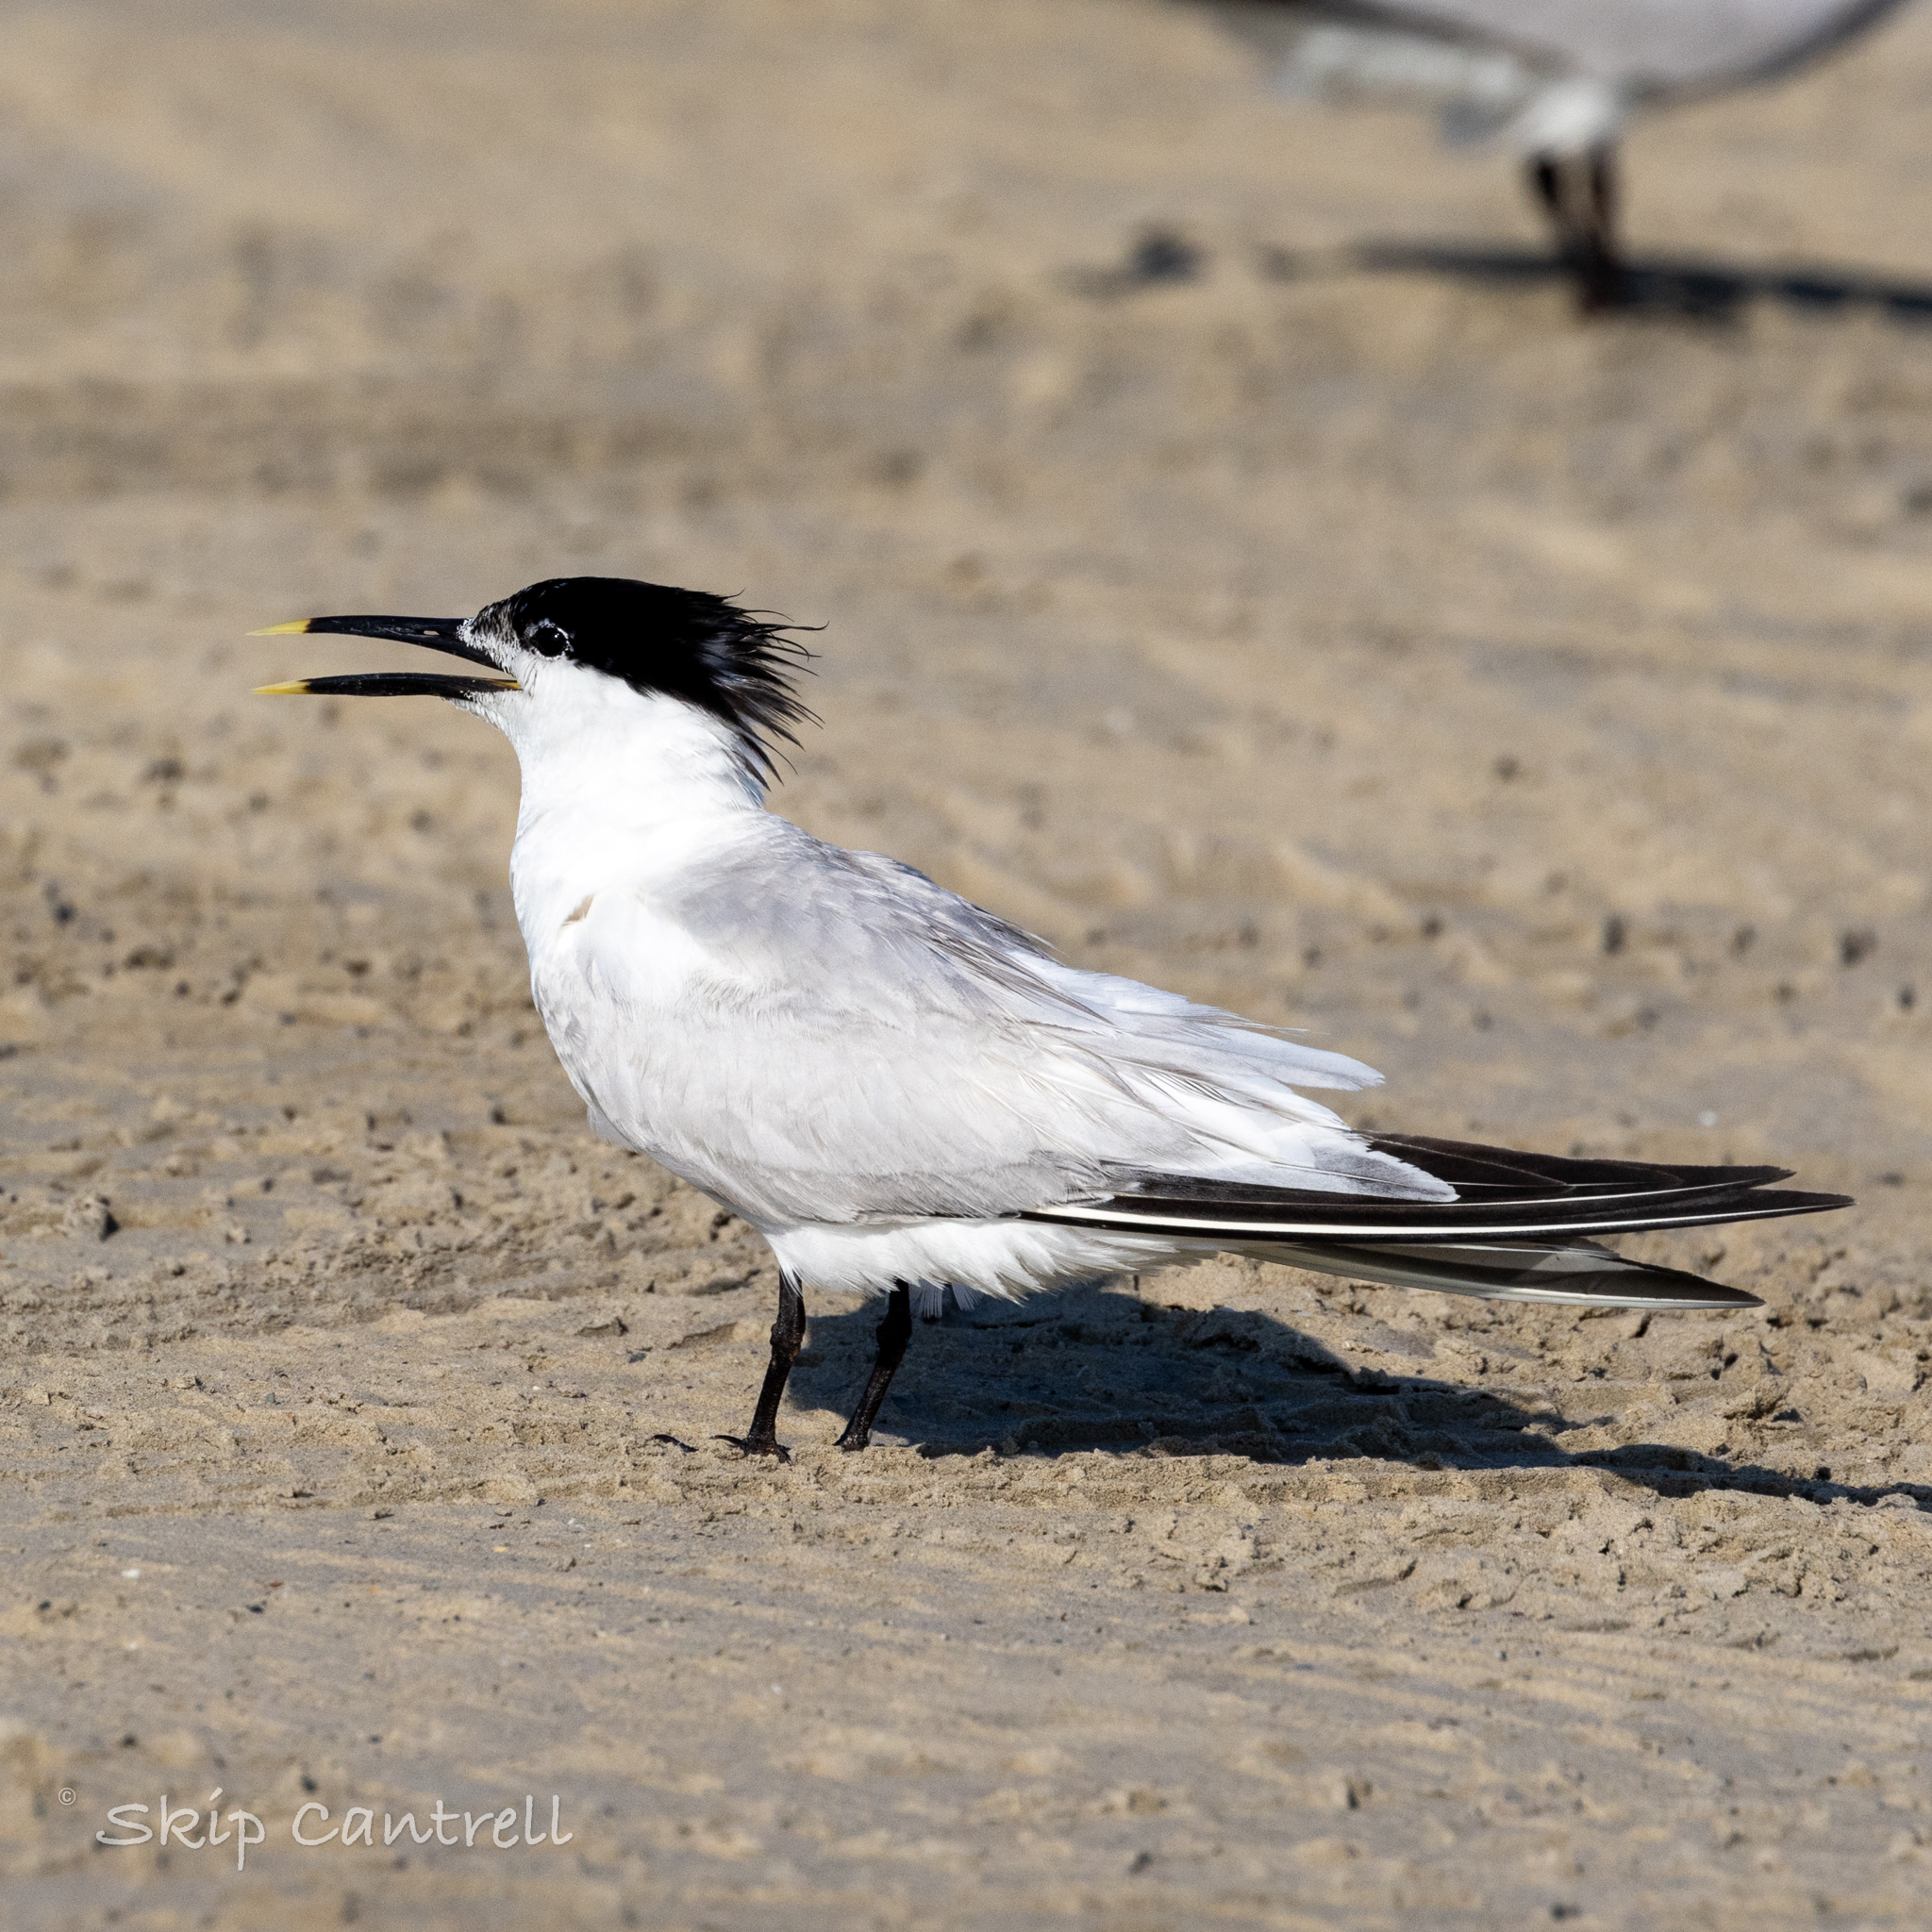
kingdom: Animalia
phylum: Chordata
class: Aves
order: Charadriiformes
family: Laridae
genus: Thalasseus
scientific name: Thalasseus sandvicensis
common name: Sandwich tern
